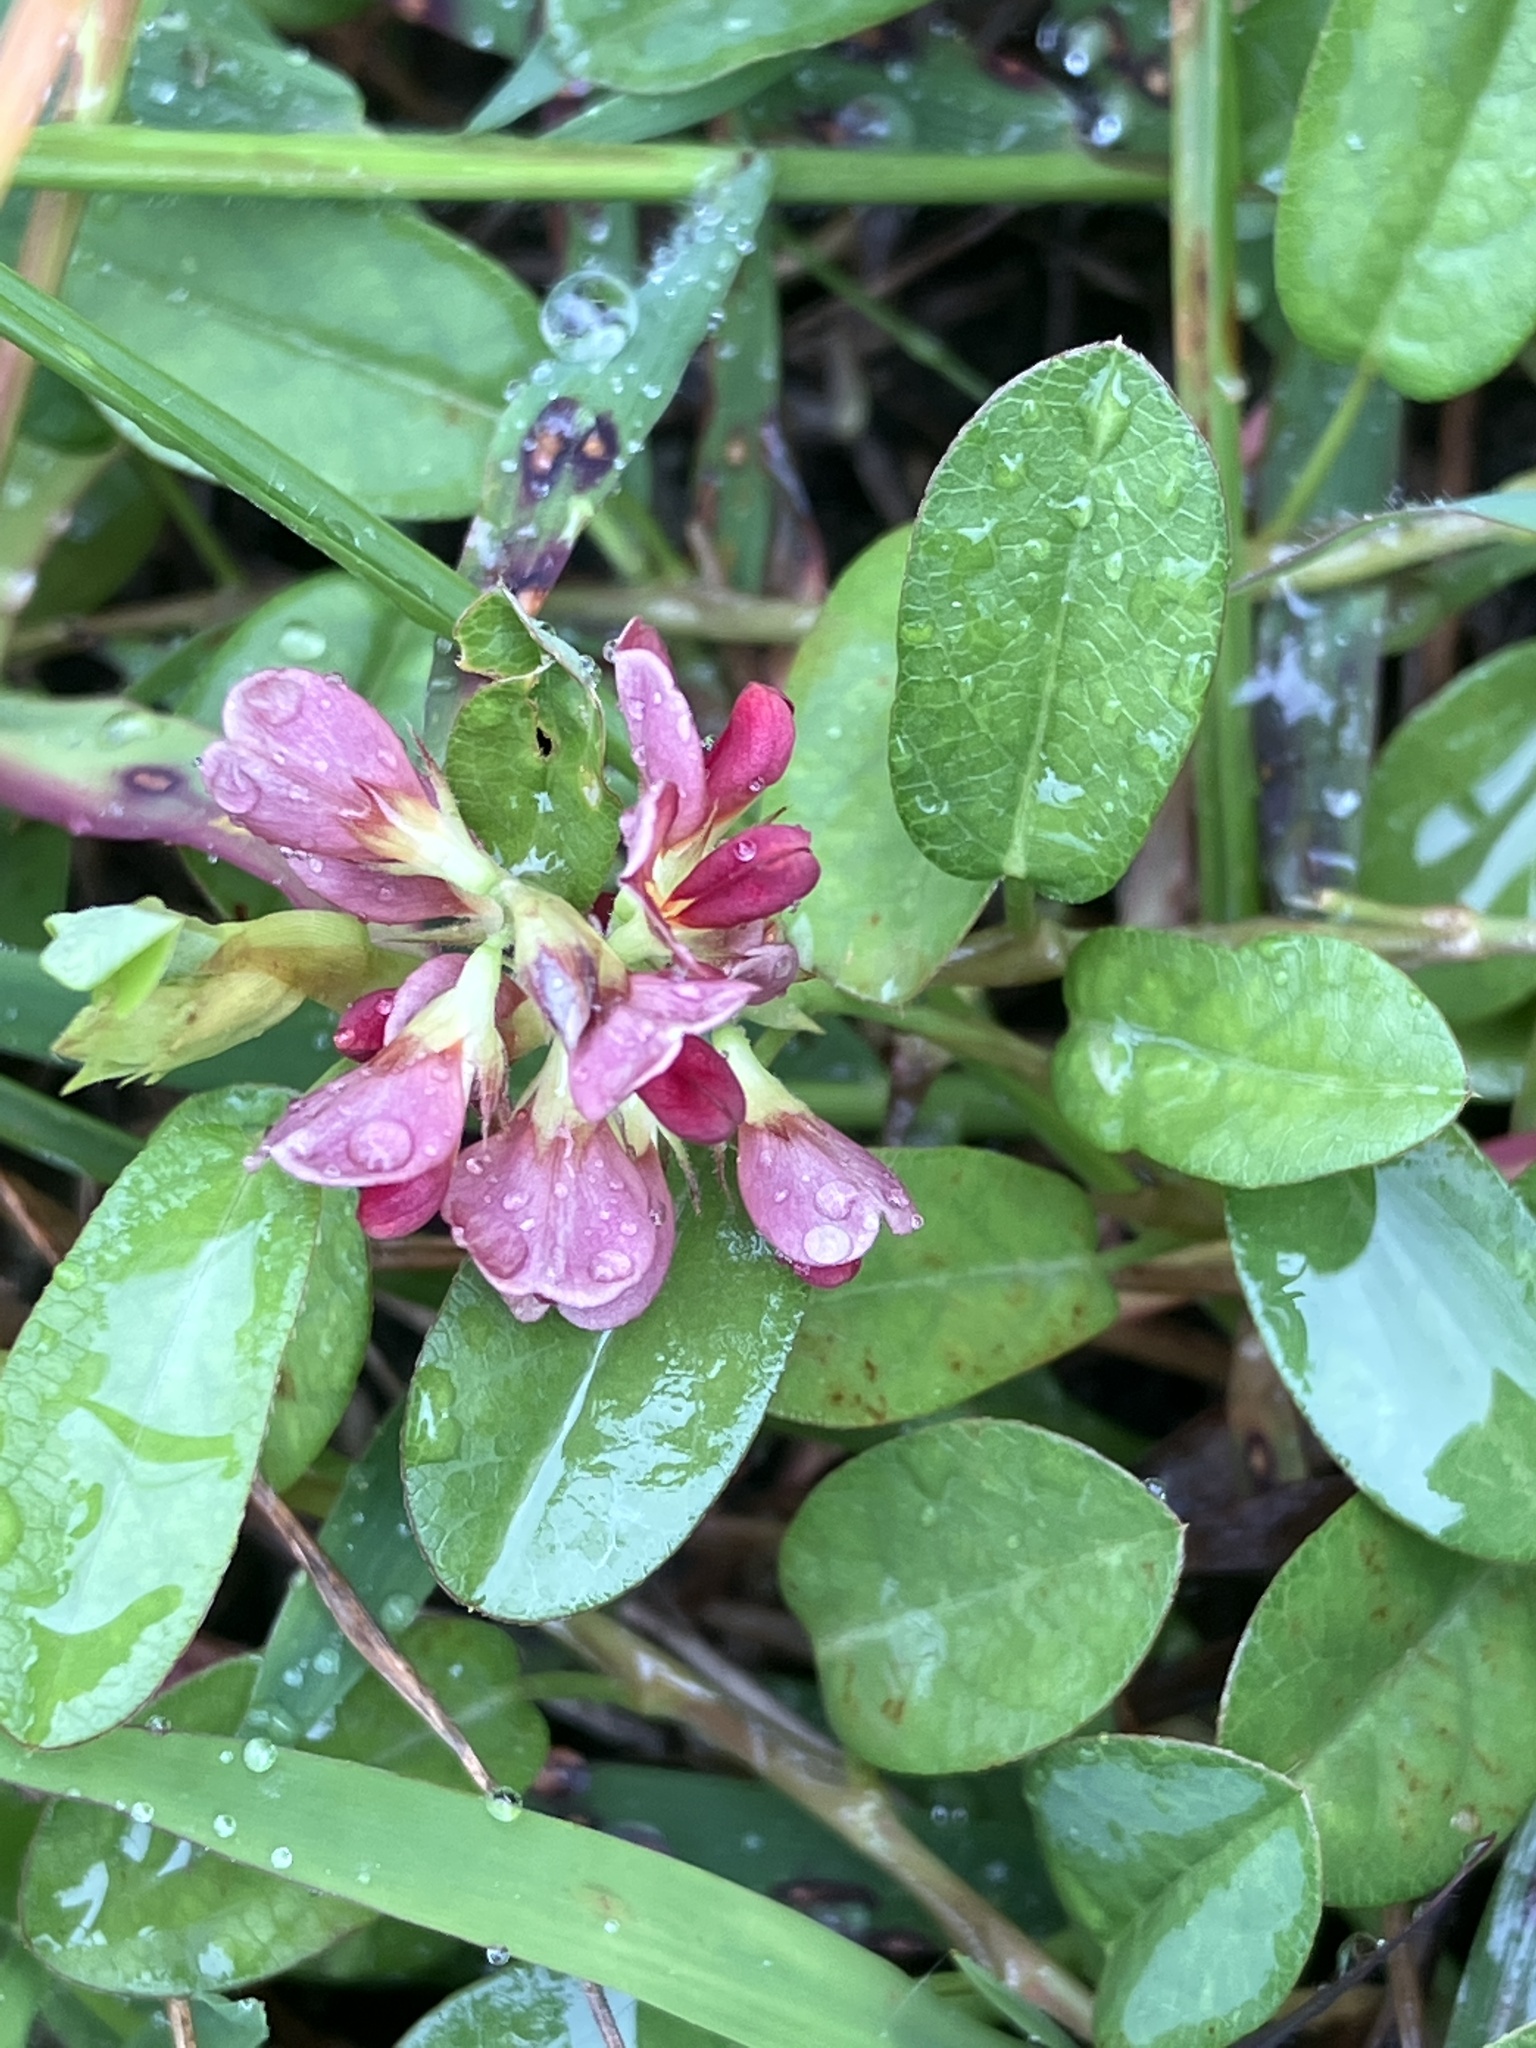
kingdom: Plantae
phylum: Tracheophyta
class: Magnoliopsida
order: Fabales
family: Fabaceae
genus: Alysicarpus
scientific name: Alysicarpus vaginalis
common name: White moneywort
